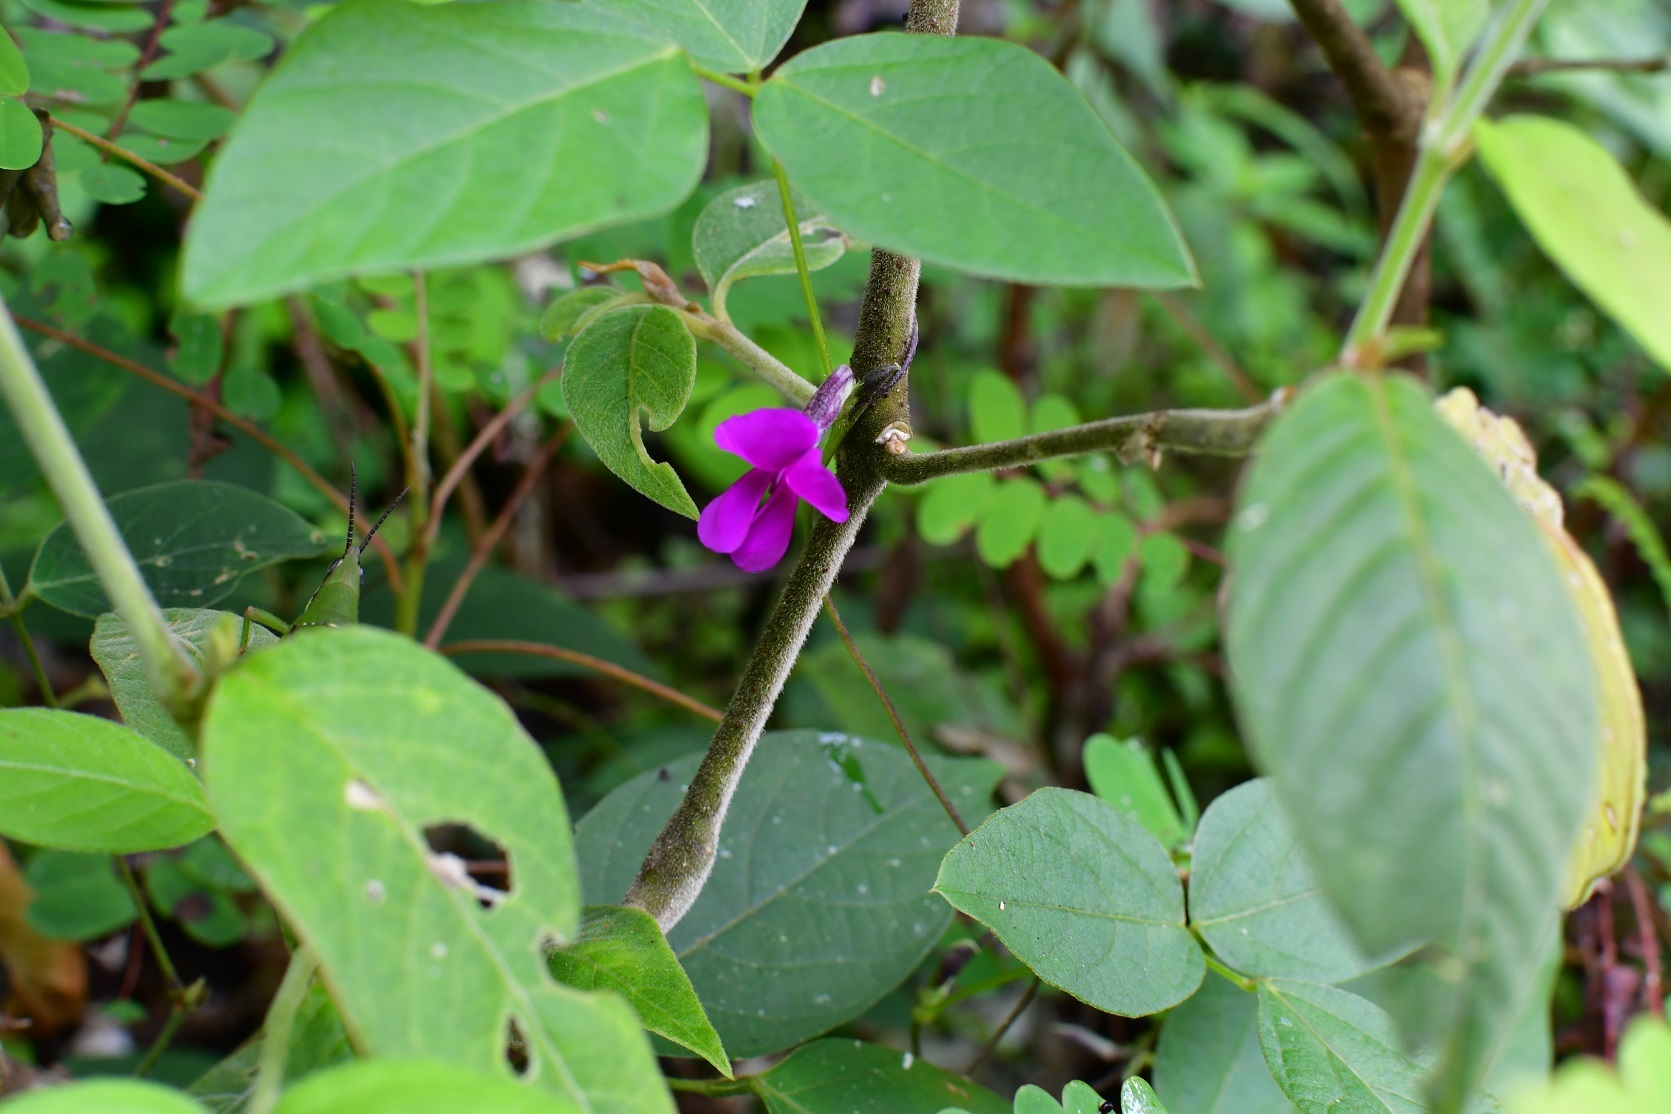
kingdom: Plantae
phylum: Tracheophyta
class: Magnoliopsida
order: Fabales
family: Fabaceae
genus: Cologania
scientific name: Cologania broussonetii
